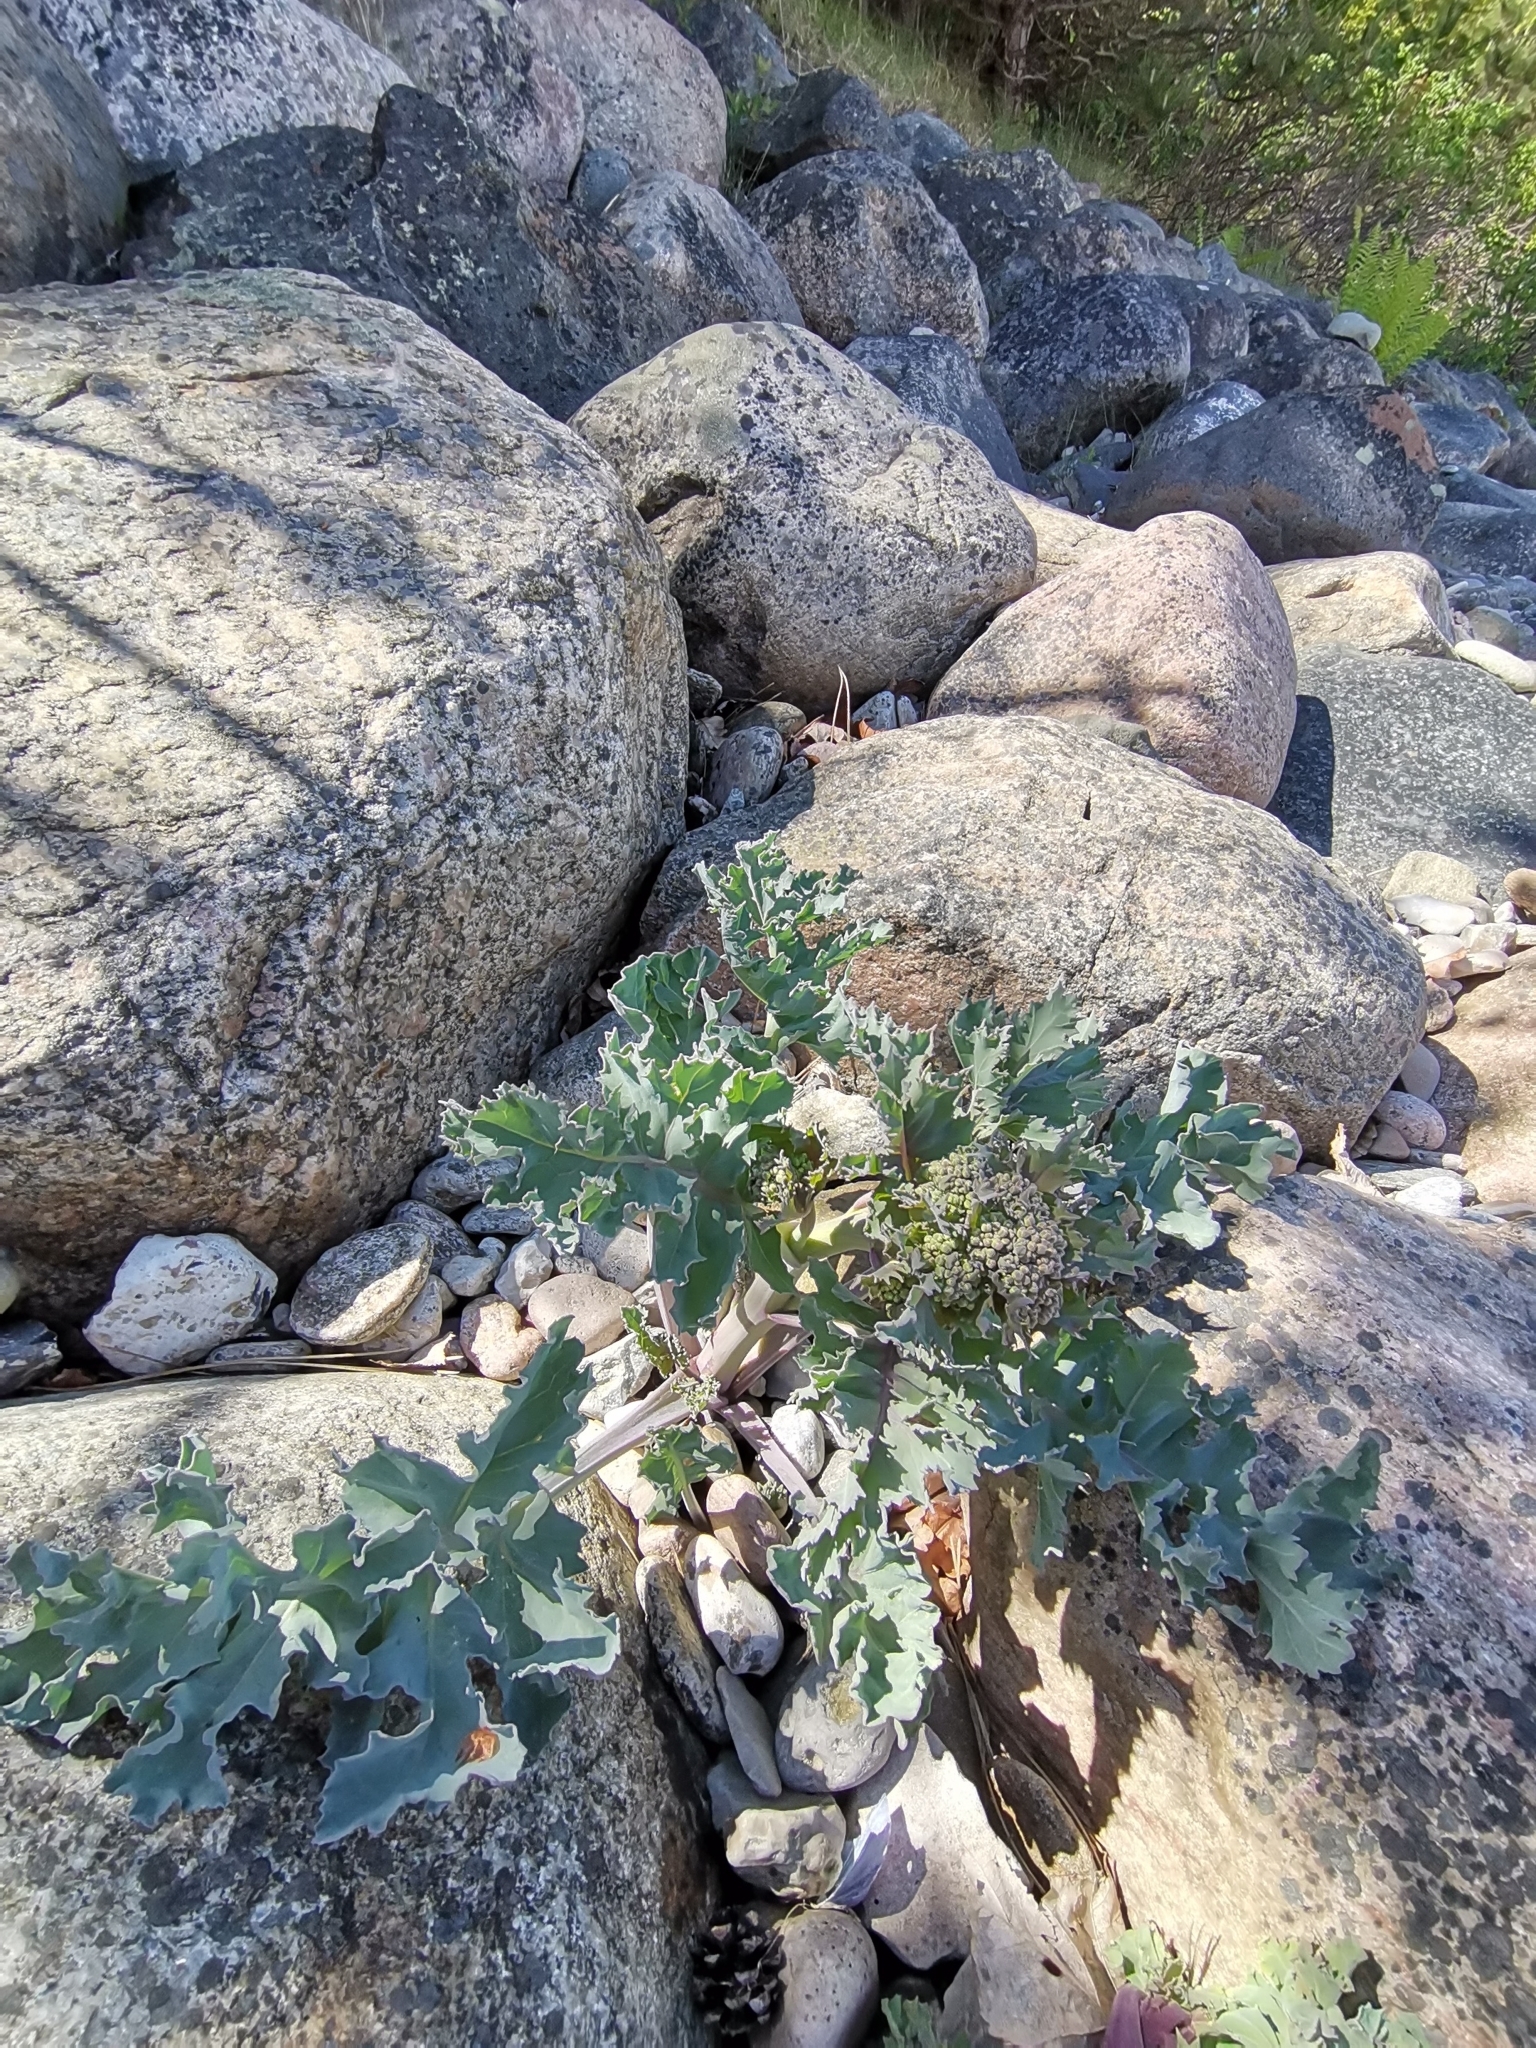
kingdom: Plantae
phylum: Tracheophyta
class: Magnoliopsida
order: Brassicales
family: Brassicaceae
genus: Crambe
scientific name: Crambe maritima
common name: Sea-kale
